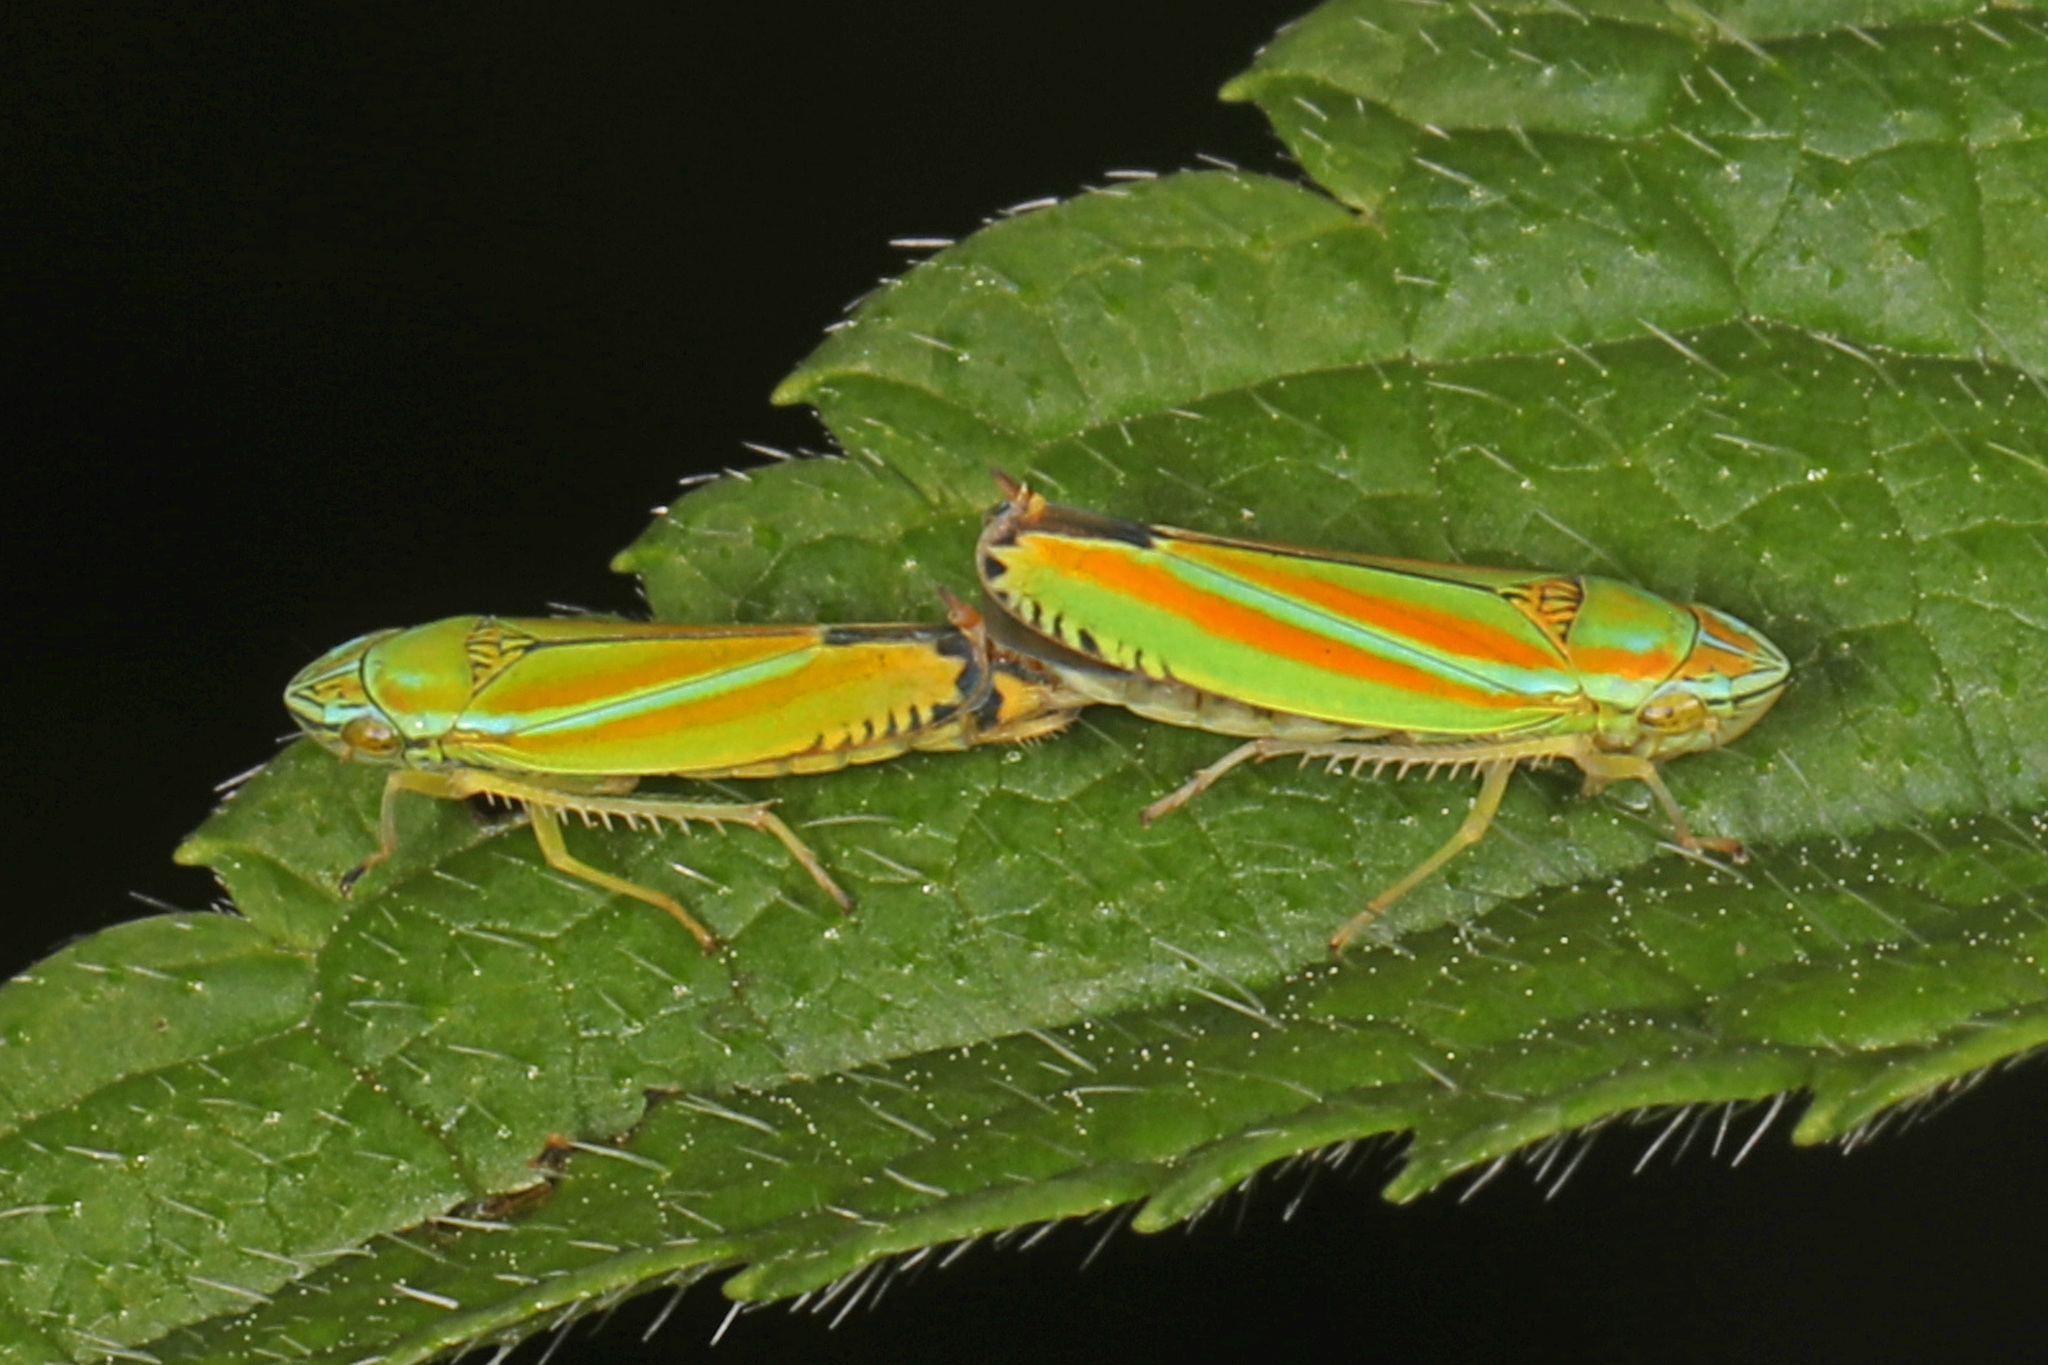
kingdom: Animalia
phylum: Arthropoda
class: Insecta
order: Hemiptera
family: Cicadellidae
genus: Graphocephala
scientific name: Graphocephala versuta
